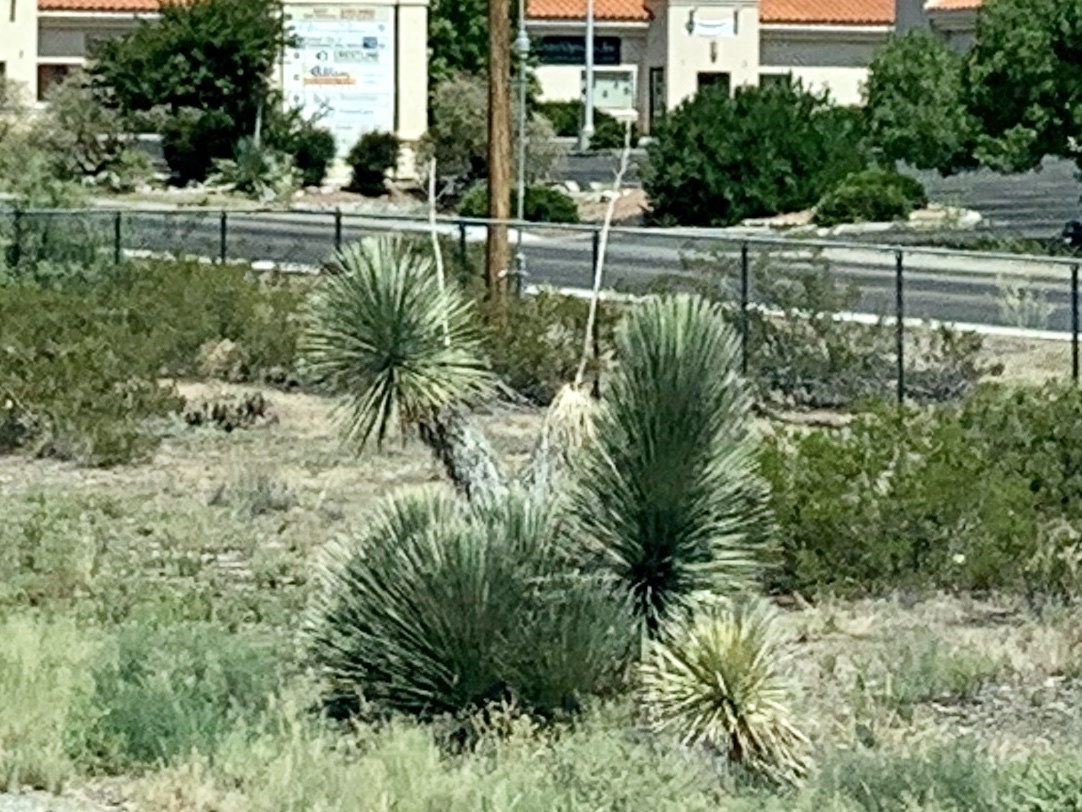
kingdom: Plantae
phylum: Tracheophyta
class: Liliopsida
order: Asparagales
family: Asparagaceae
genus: Yucca
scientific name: Yucca elata
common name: Palmella
